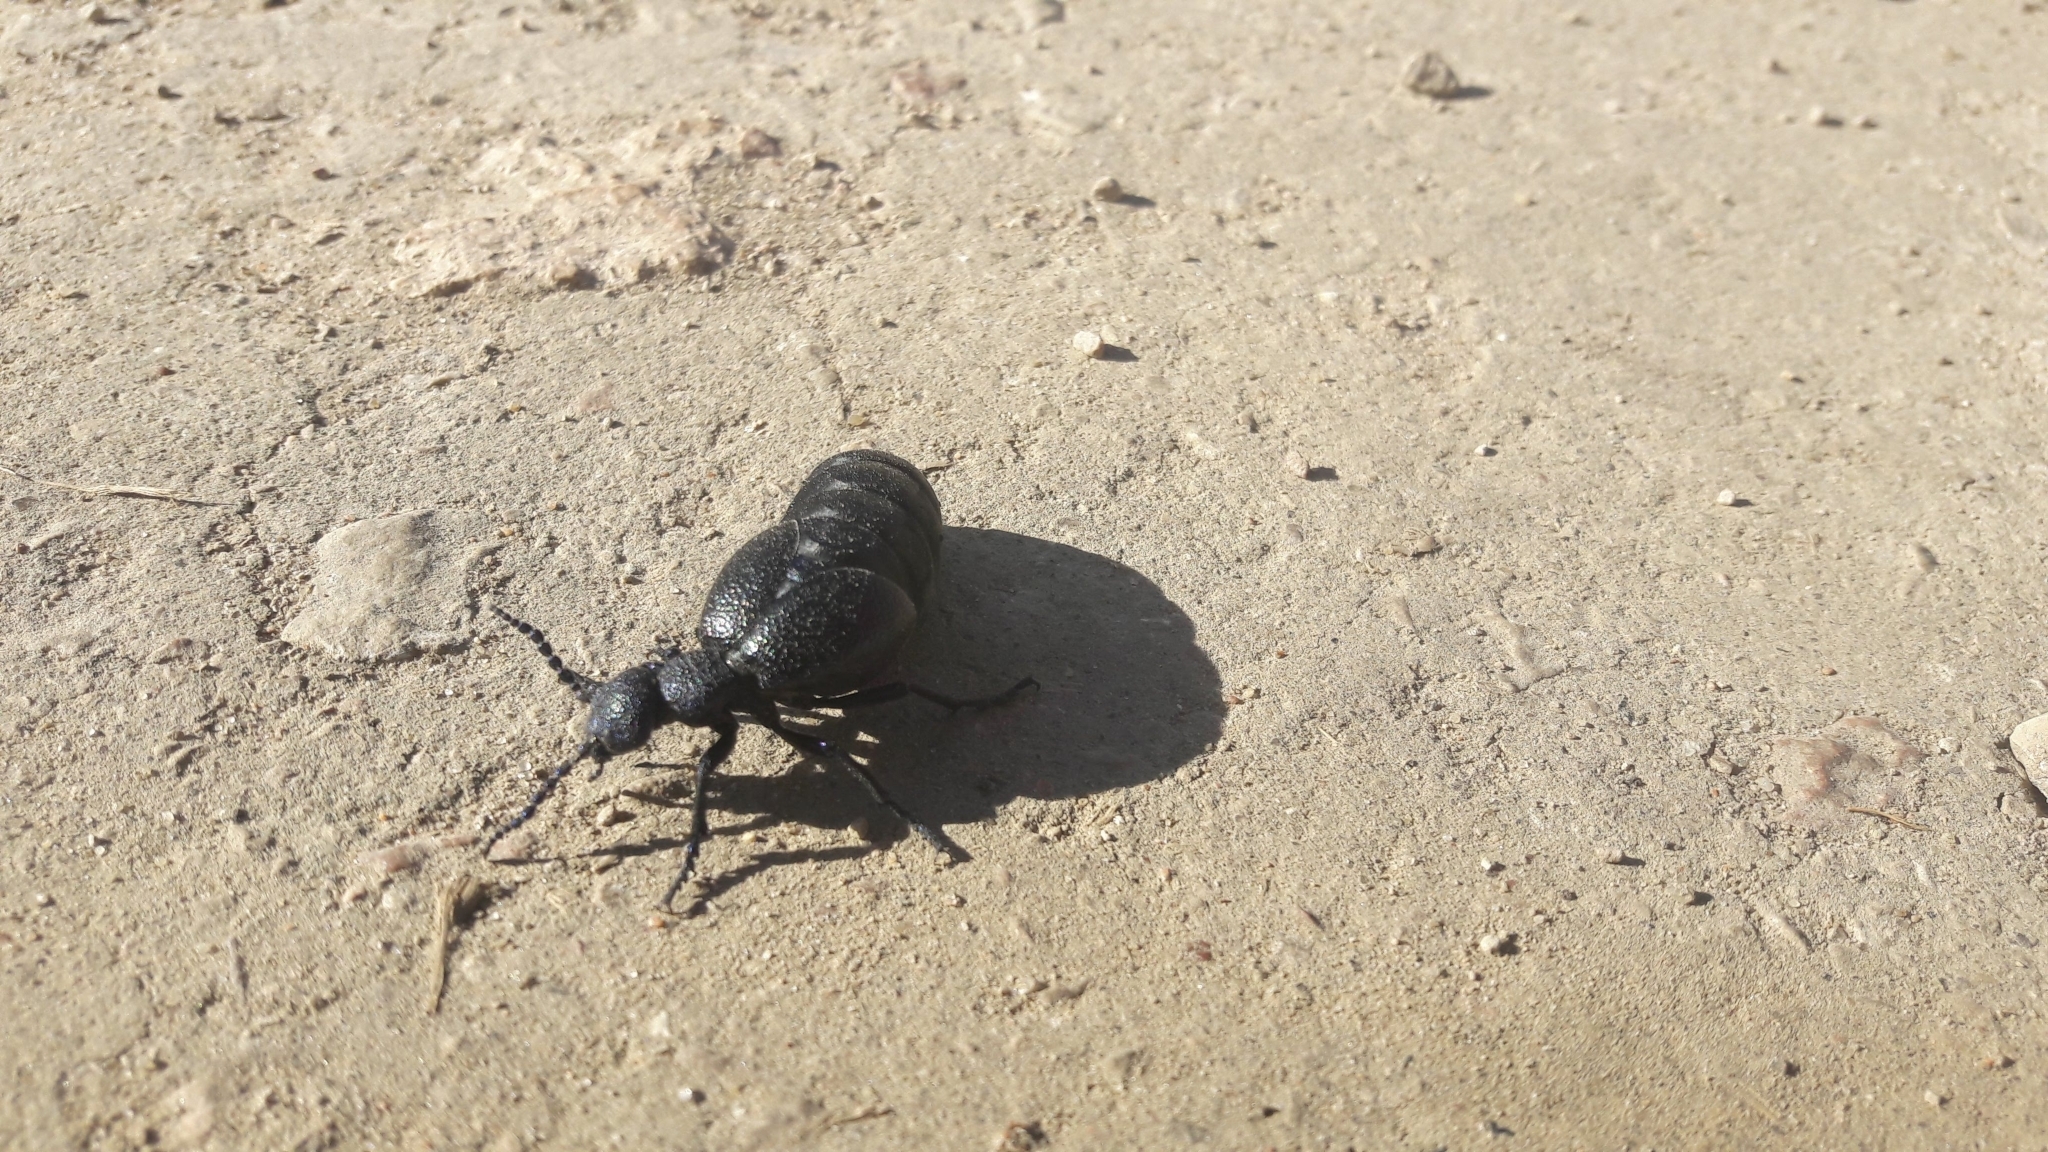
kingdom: Animalia
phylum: Arthropoda
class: Insecta
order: Coleoptera
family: Meloidae
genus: Meloe
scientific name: Meloe proscarabaeus
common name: Black oil-beetle
